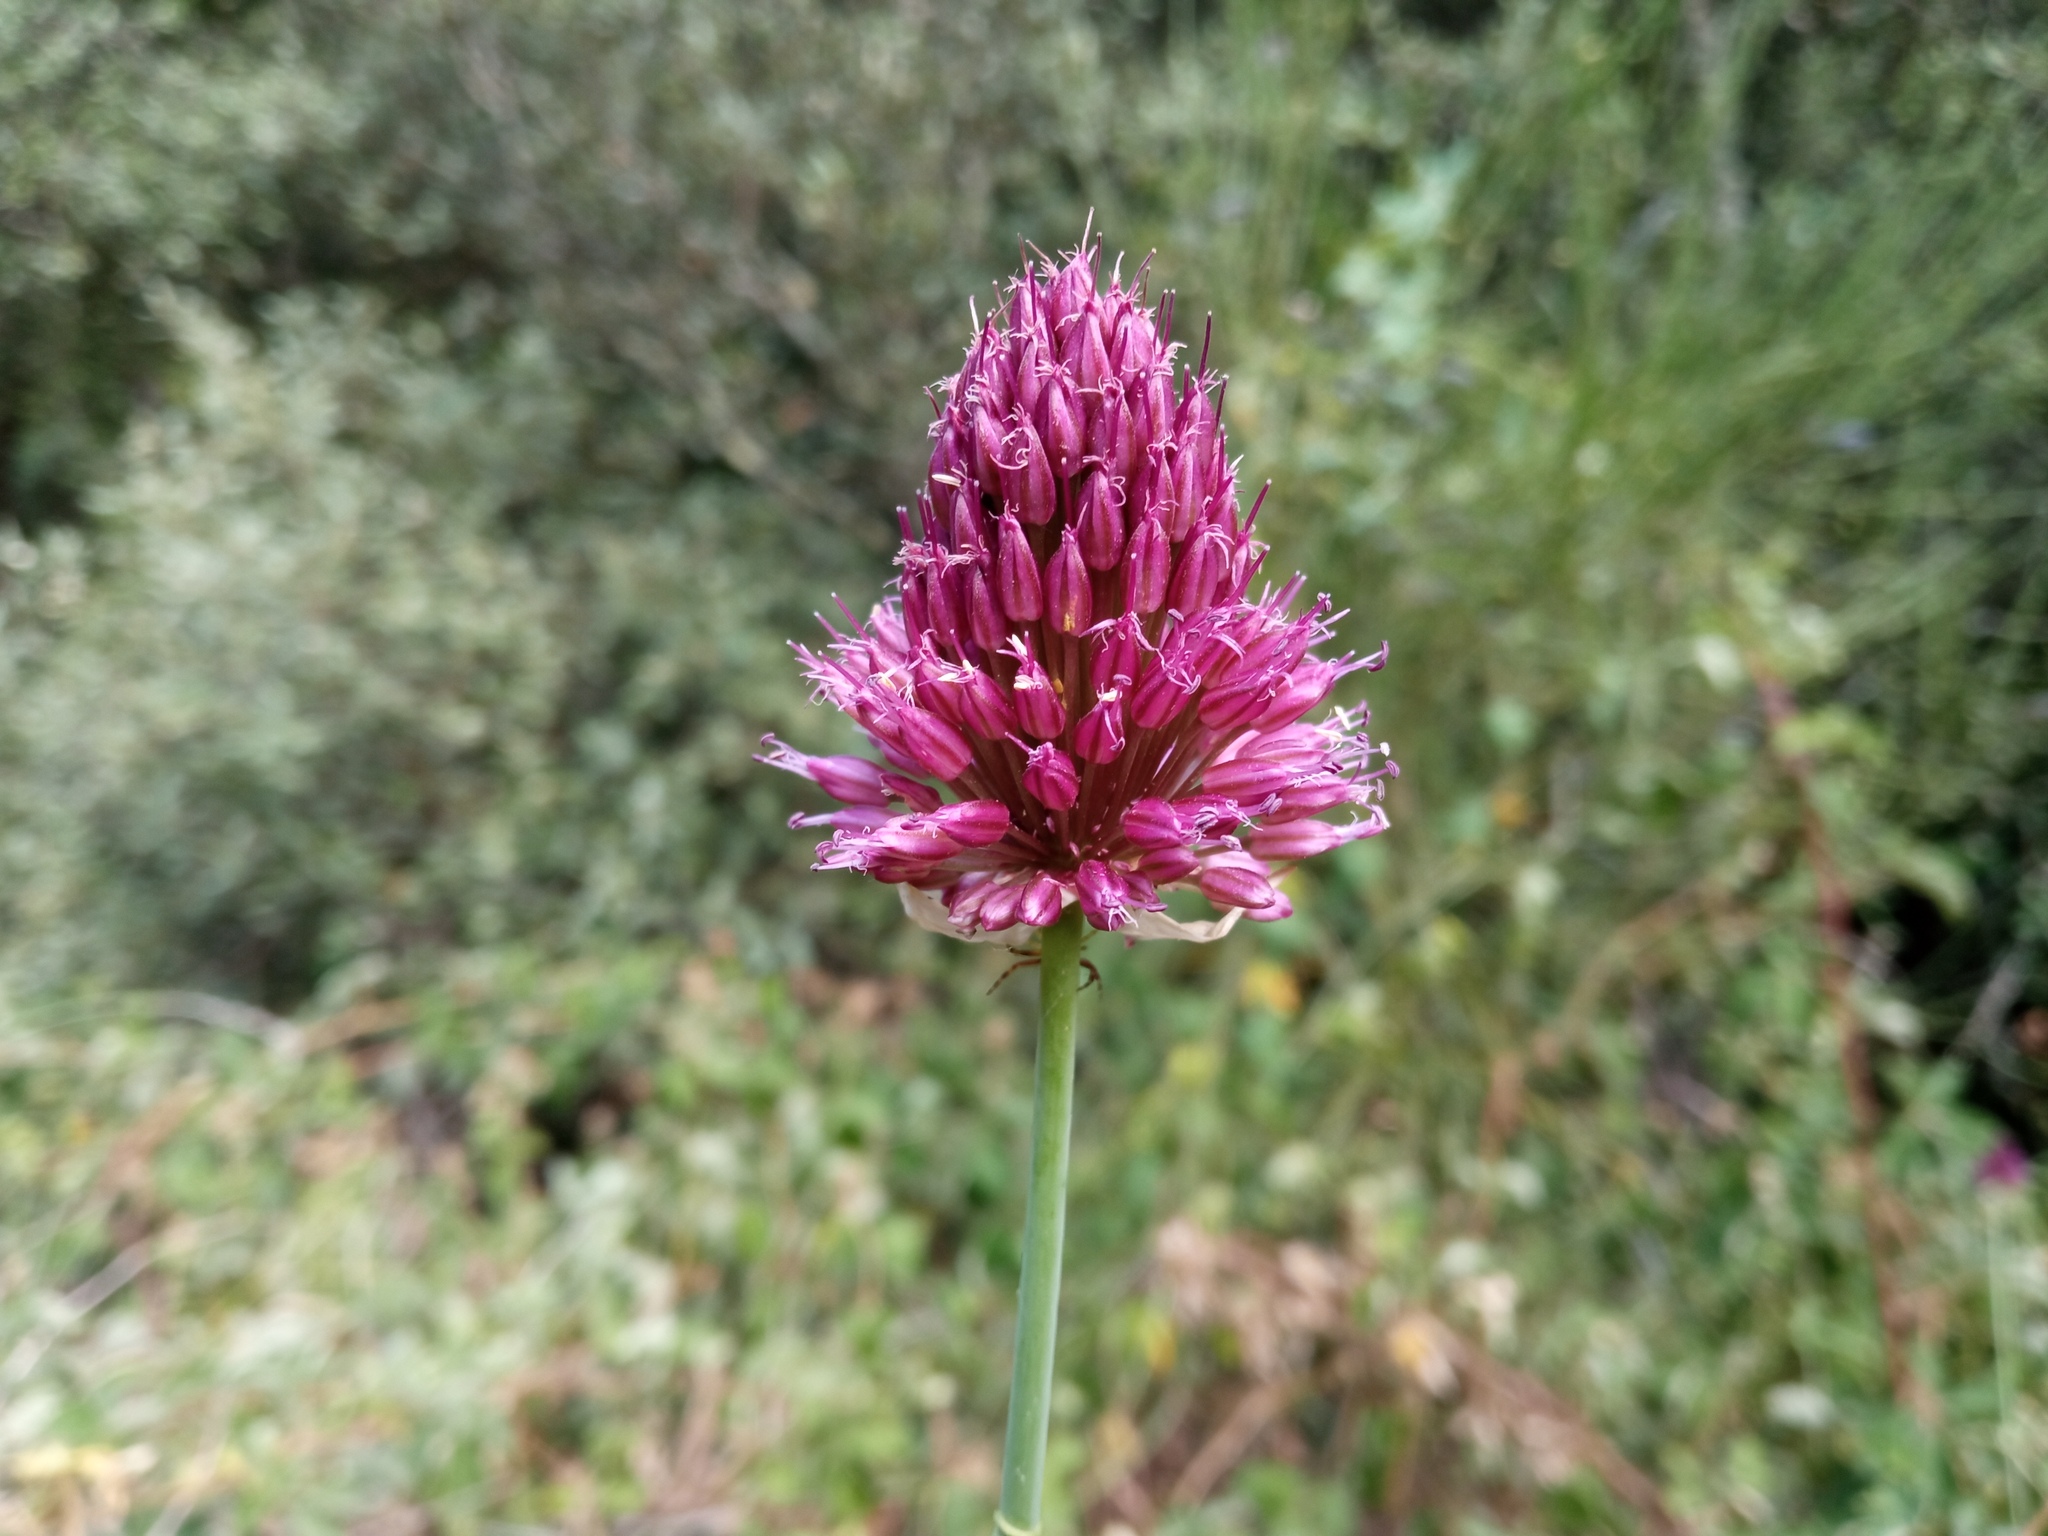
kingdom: Plantae
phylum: Tracheophyta
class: Liliopsida
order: Asparagales
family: Amaryllidaceae
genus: Allium
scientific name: Allium sphaerocephalon
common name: Round-headed leek
